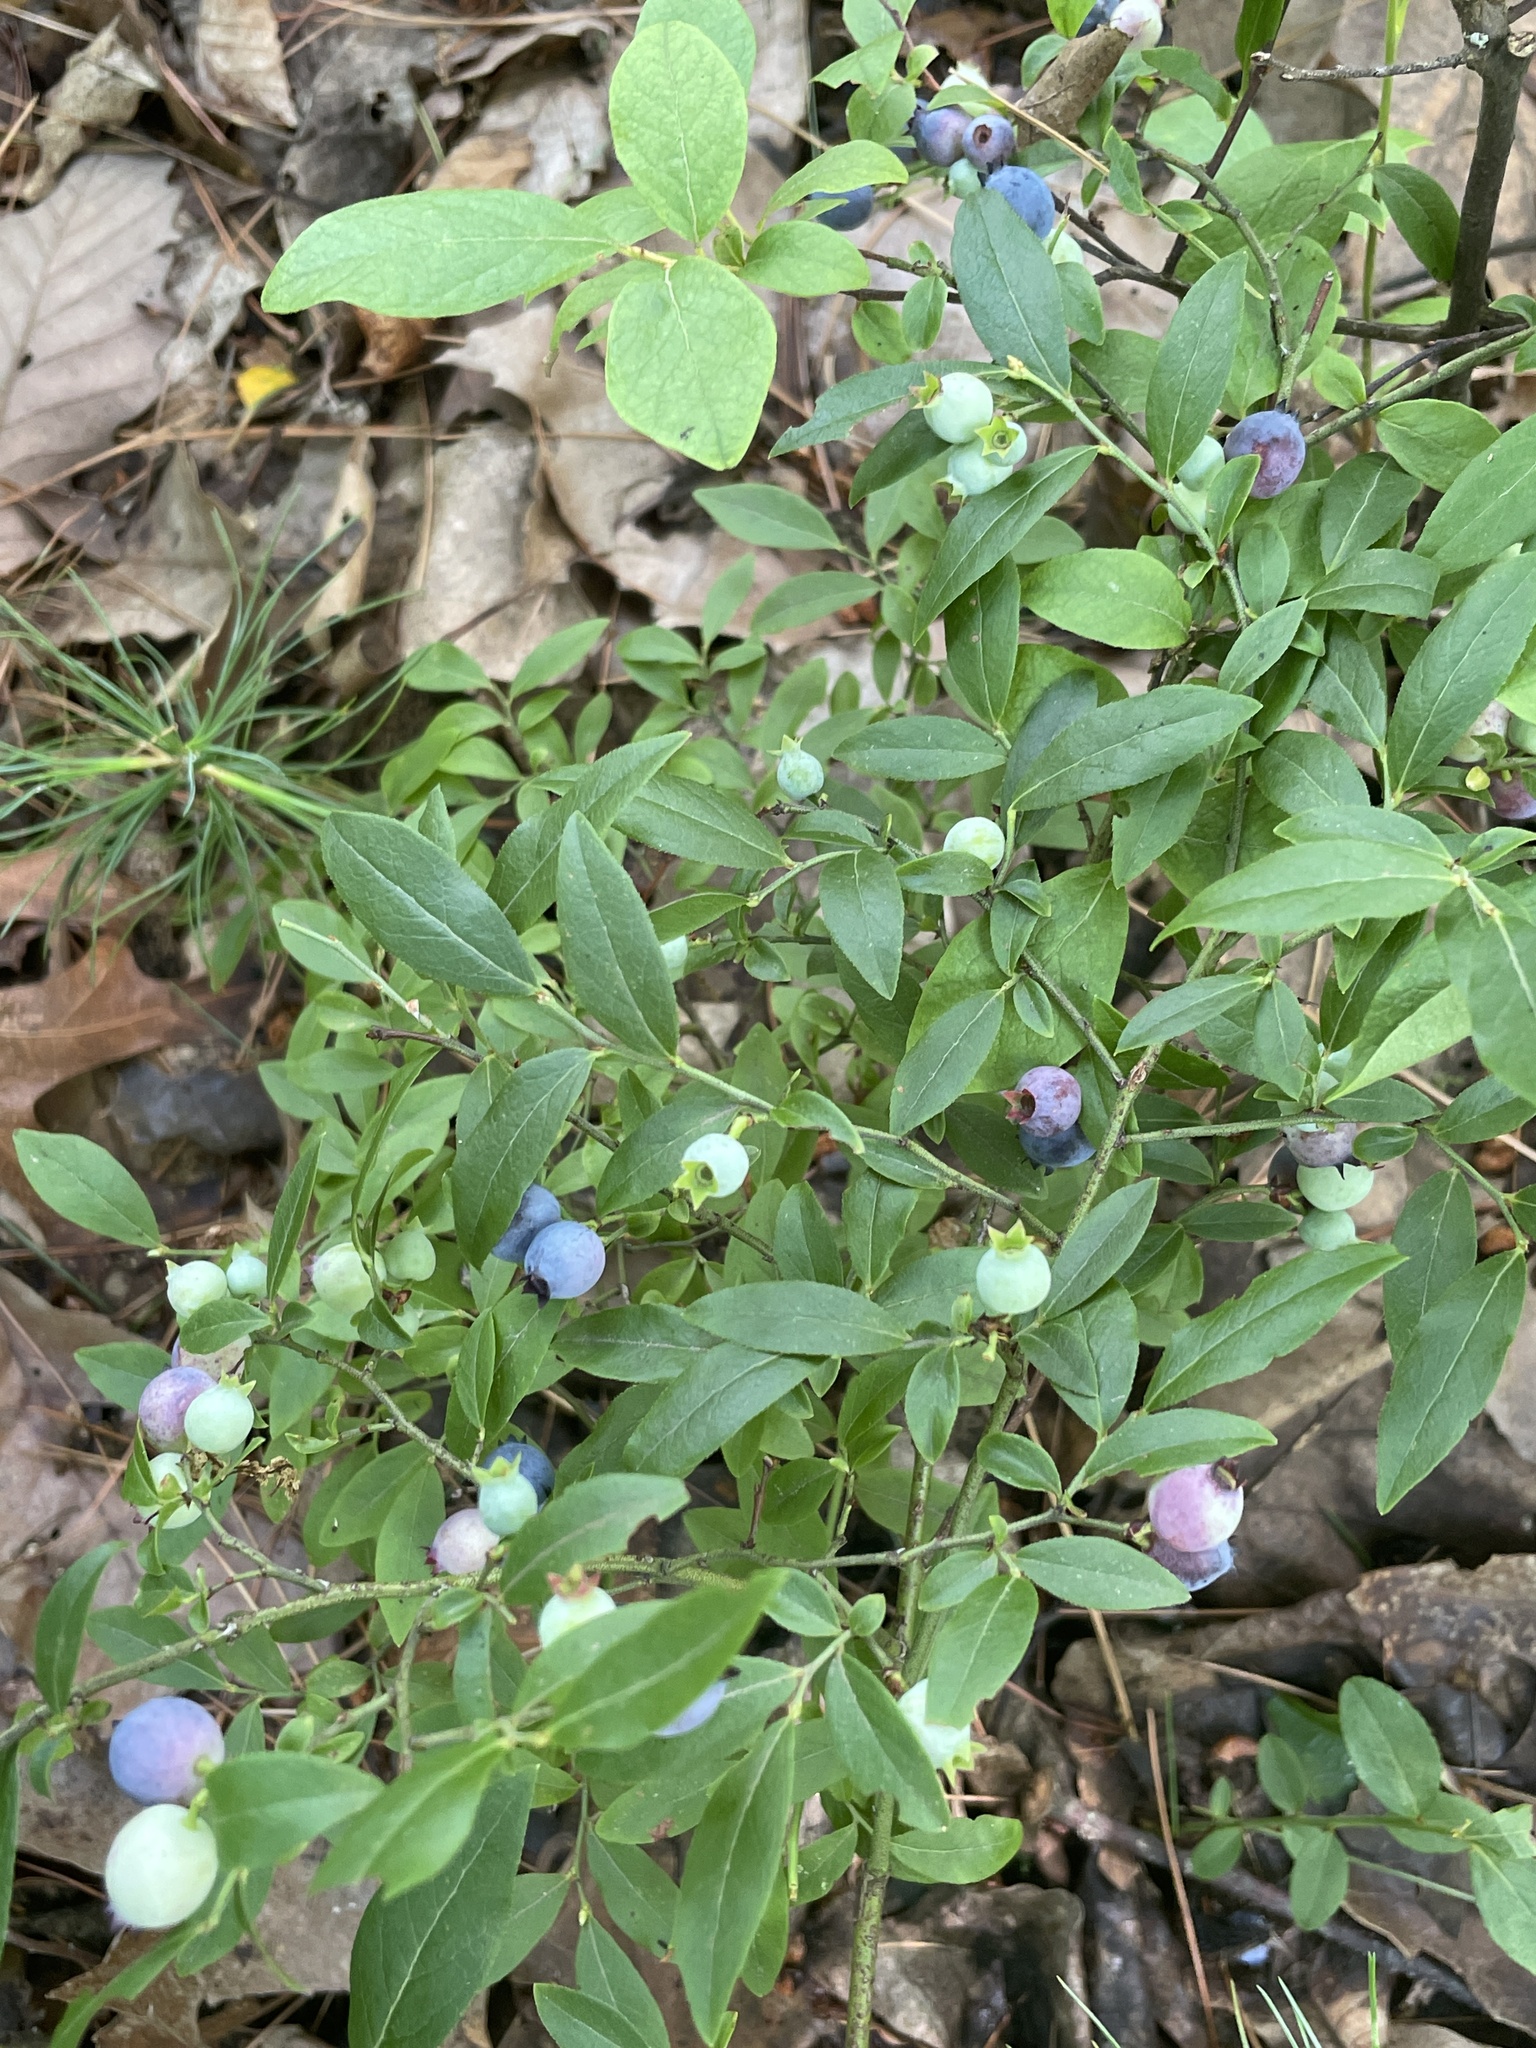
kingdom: Plantae
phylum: Tracheophyta
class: Magnoliopsida
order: Ericales
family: Ericaceae
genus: Vaccinium
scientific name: Vaccinium angustifolium
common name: Early lowbush blueberry
